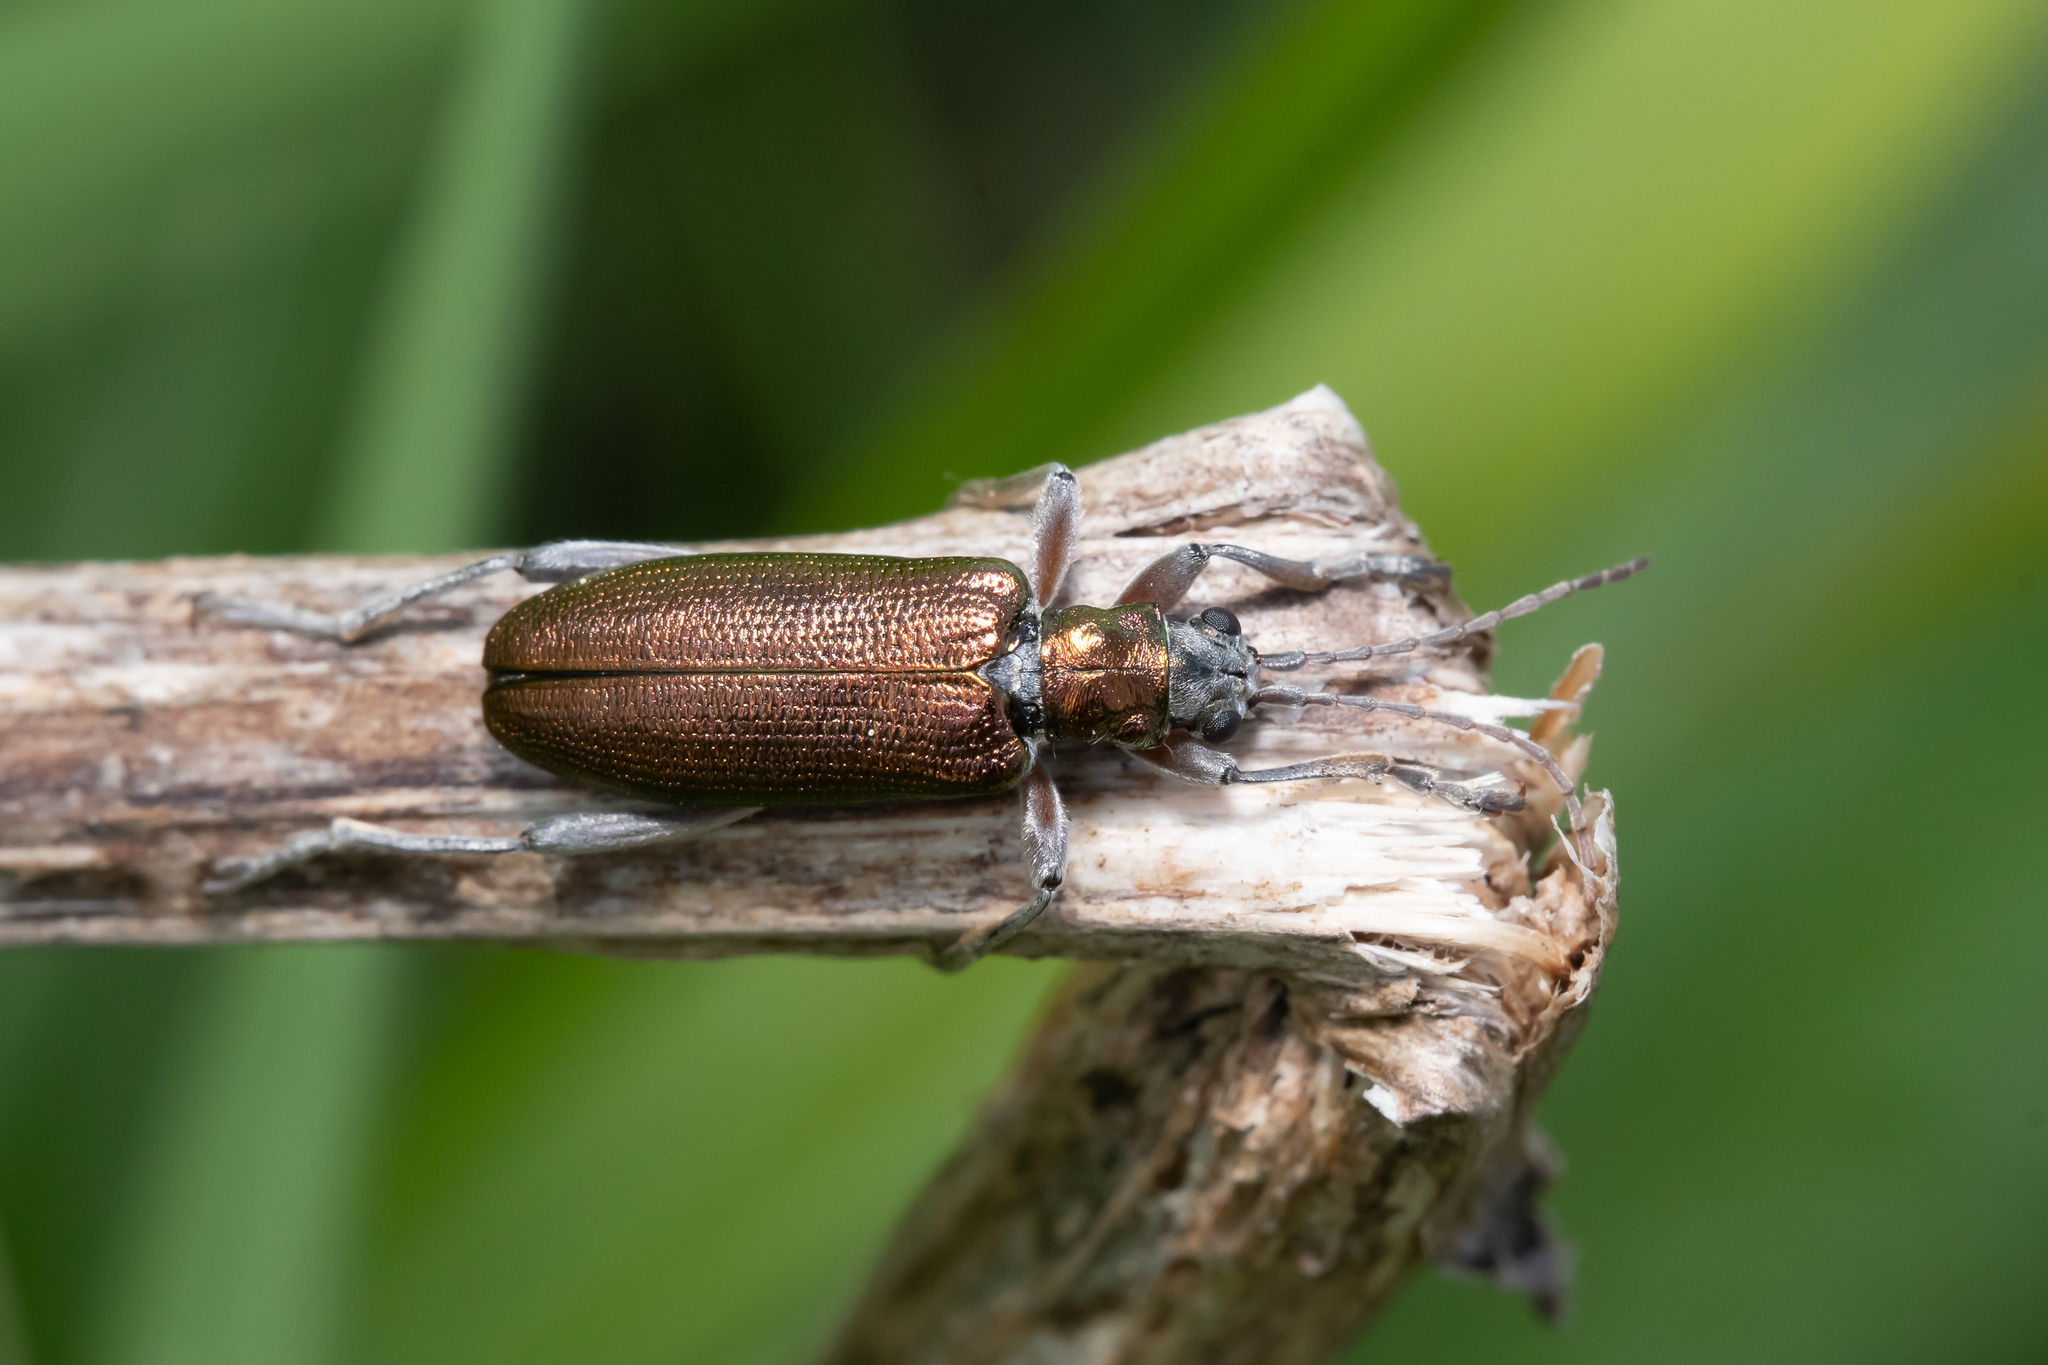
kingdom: Animalia
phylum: Arthropoda
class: Insecta
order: Coleoptera
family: Chrysomelidae
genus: Donacia
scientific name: Donacia clavipes
